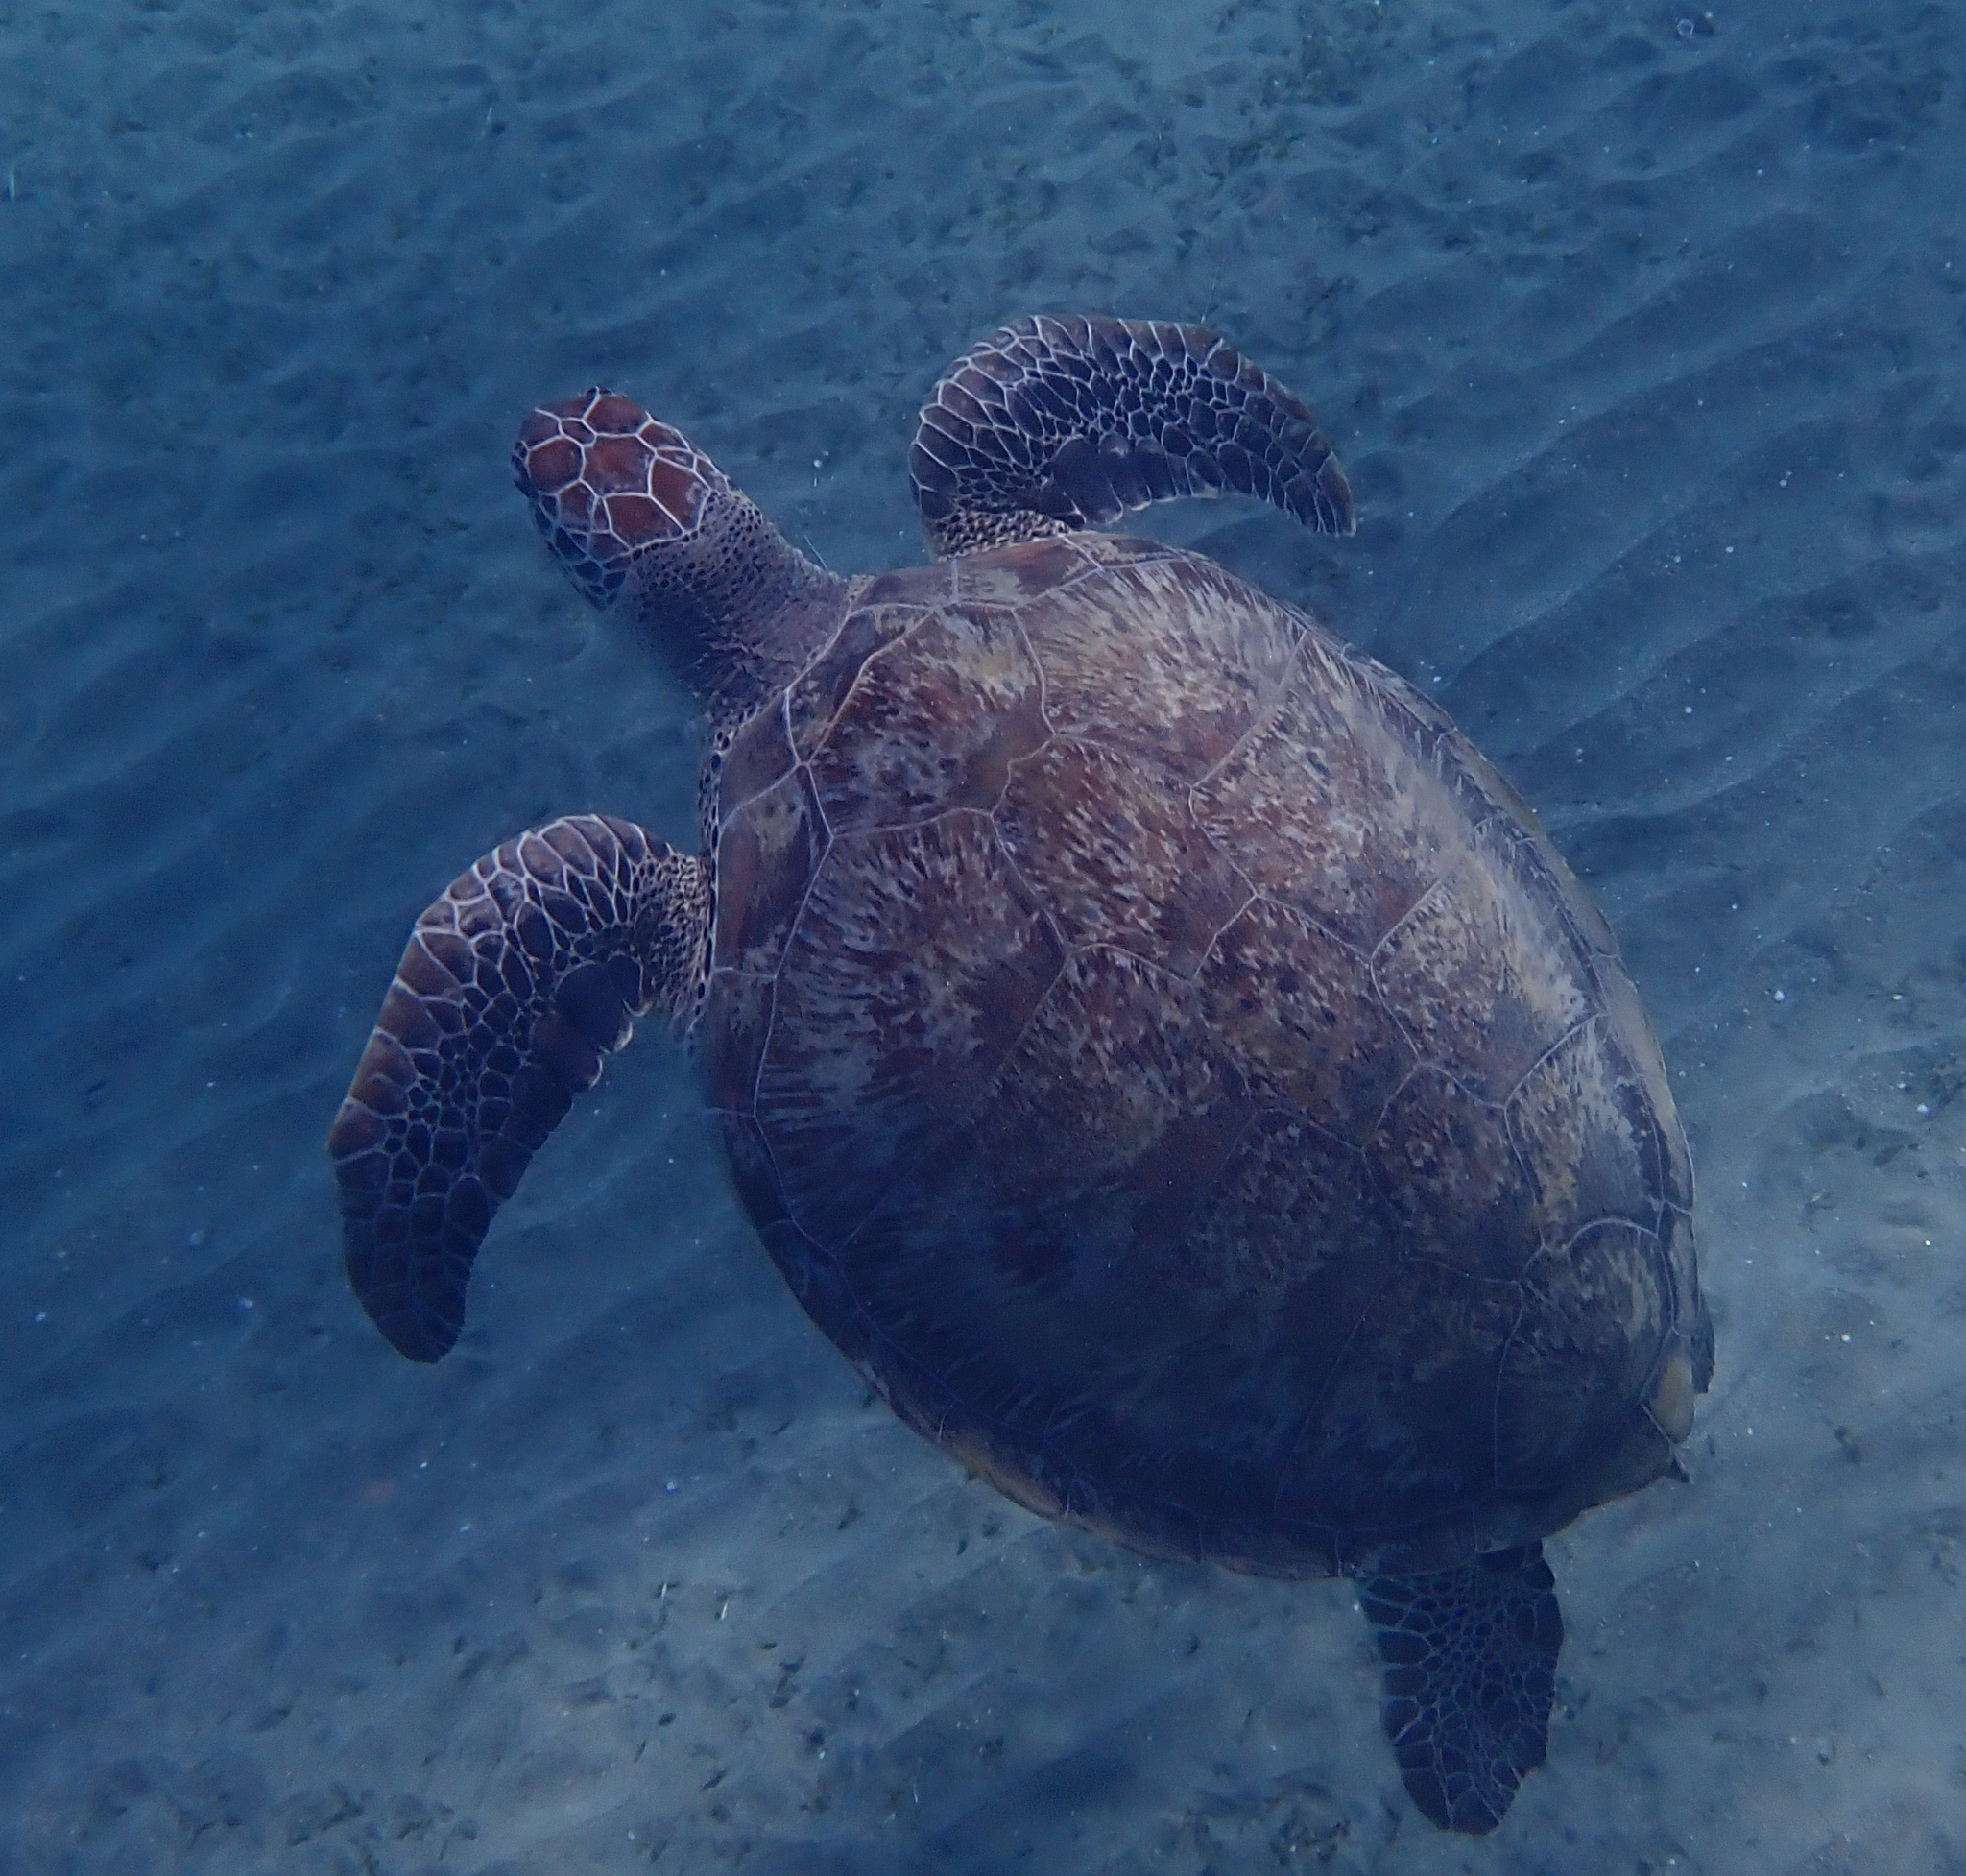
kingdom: Animalia
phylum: Chordata
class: Testudines
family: Cheloniidae
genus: Chelonia
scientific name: Chelonia mydas
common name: Green turtle
